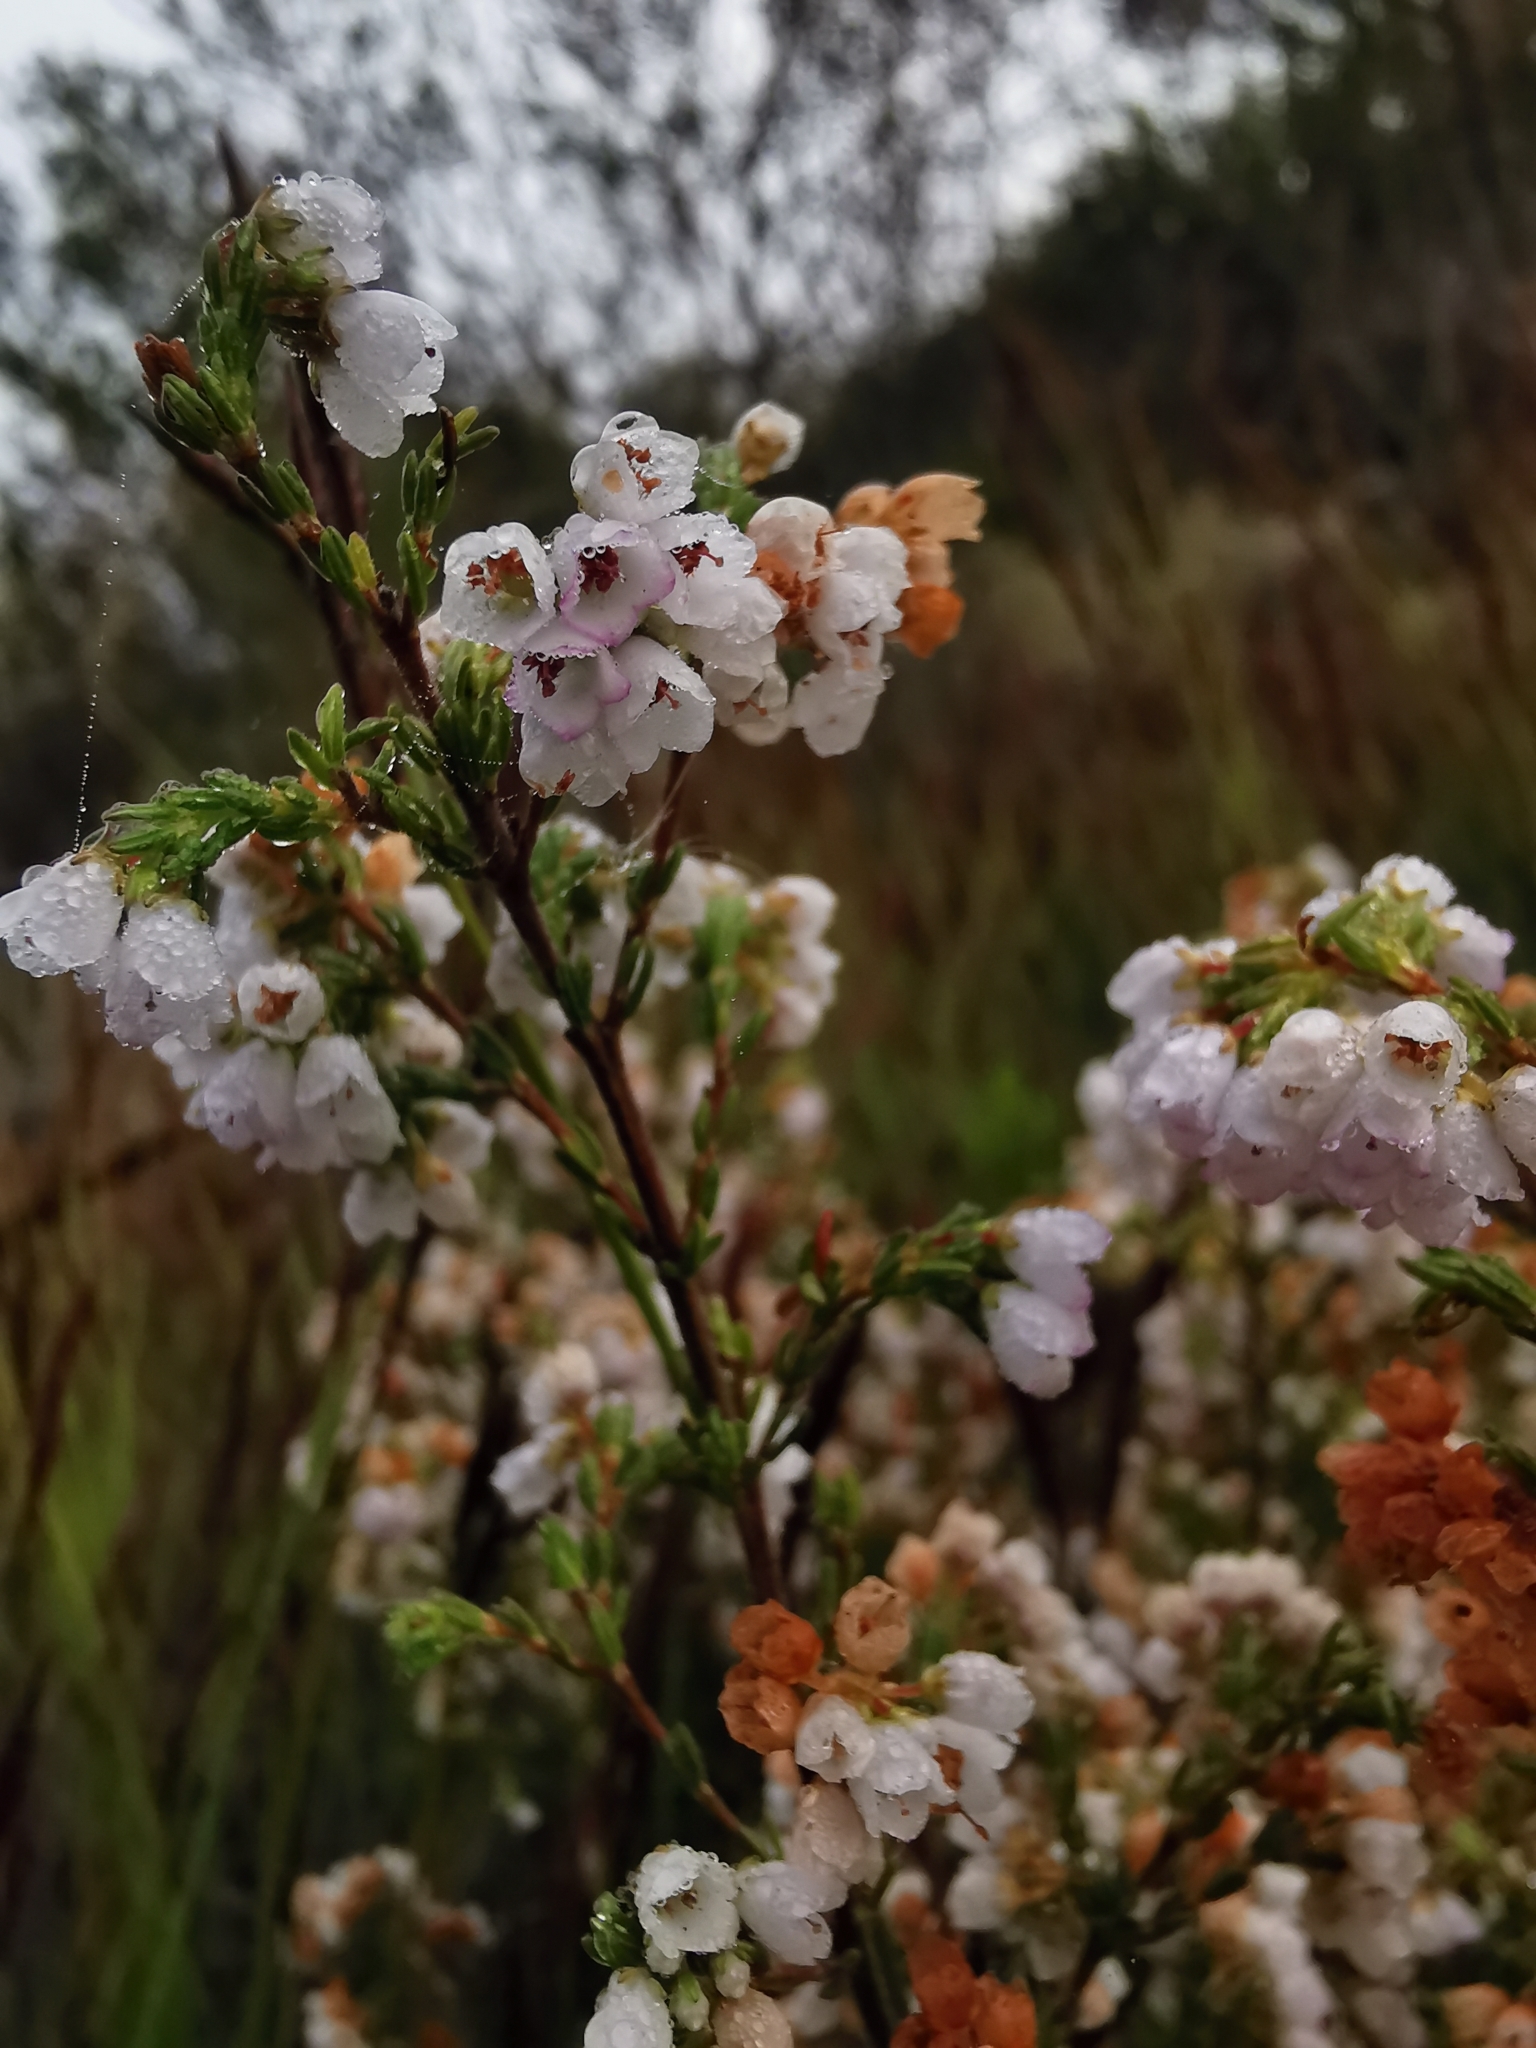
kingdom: Plantae
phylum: Tracheophyta
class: Magnoliopsida
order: Ericales
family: Ericaceae
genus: Erica
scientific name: Erica subdivaricata
